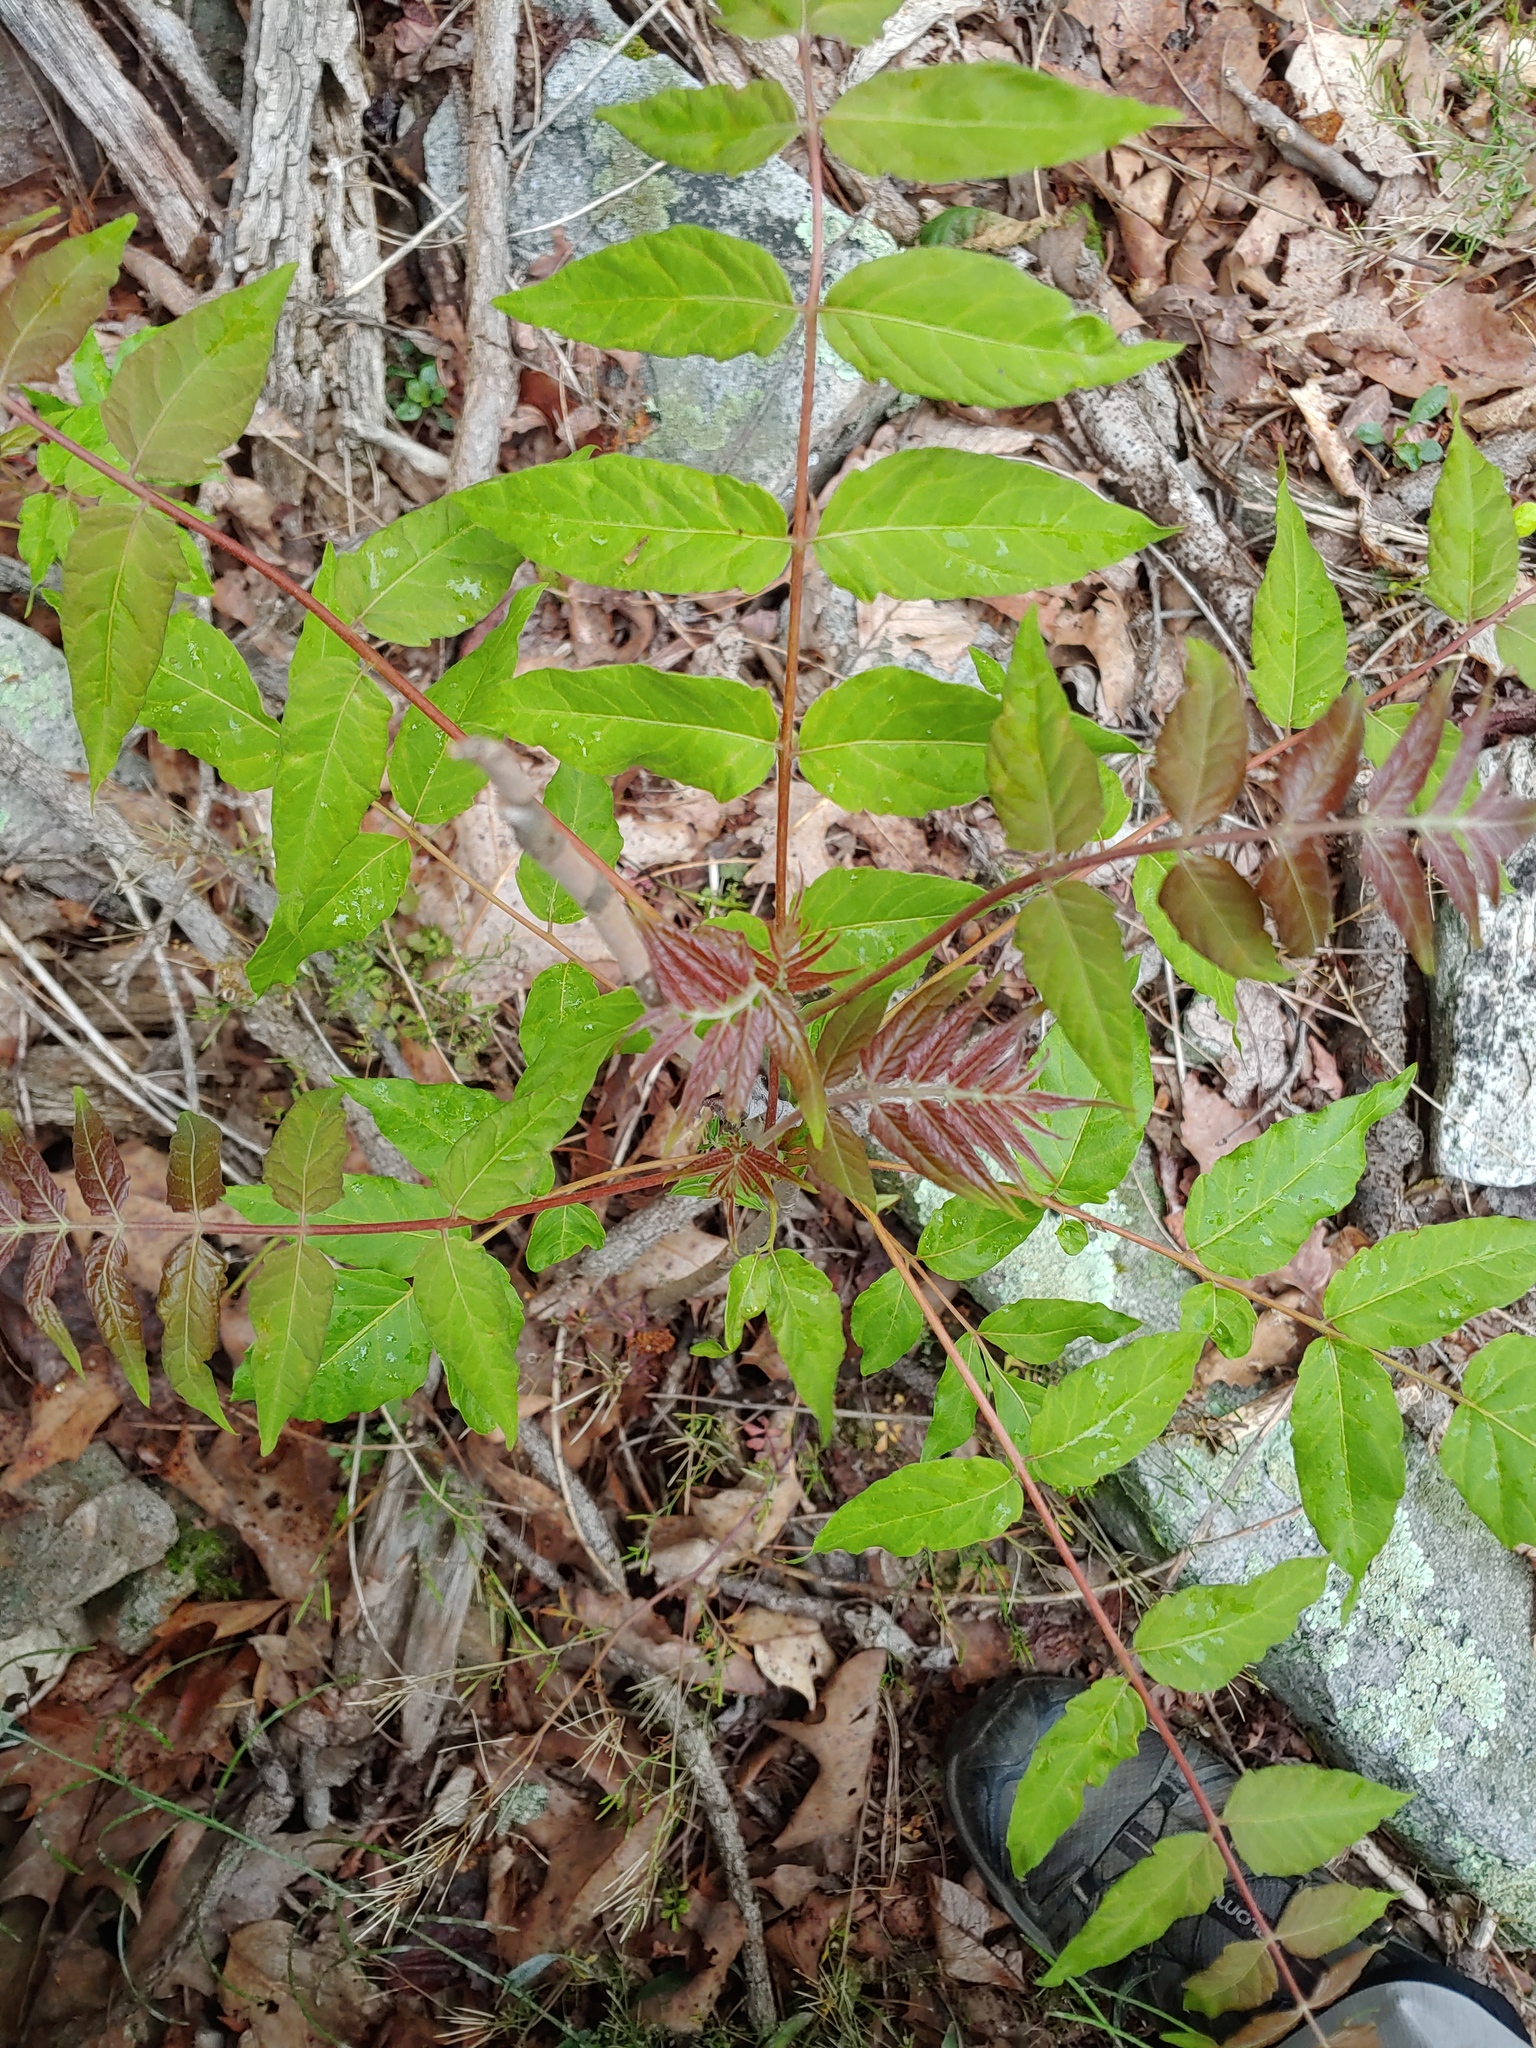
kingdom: Plantae
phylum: Tracheophyta
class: Magnoliopsida
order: Sapindales
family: Simaroubaceae
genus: Ailanthus
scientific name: Ailanthus altissima
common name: Tree-of-heaven
